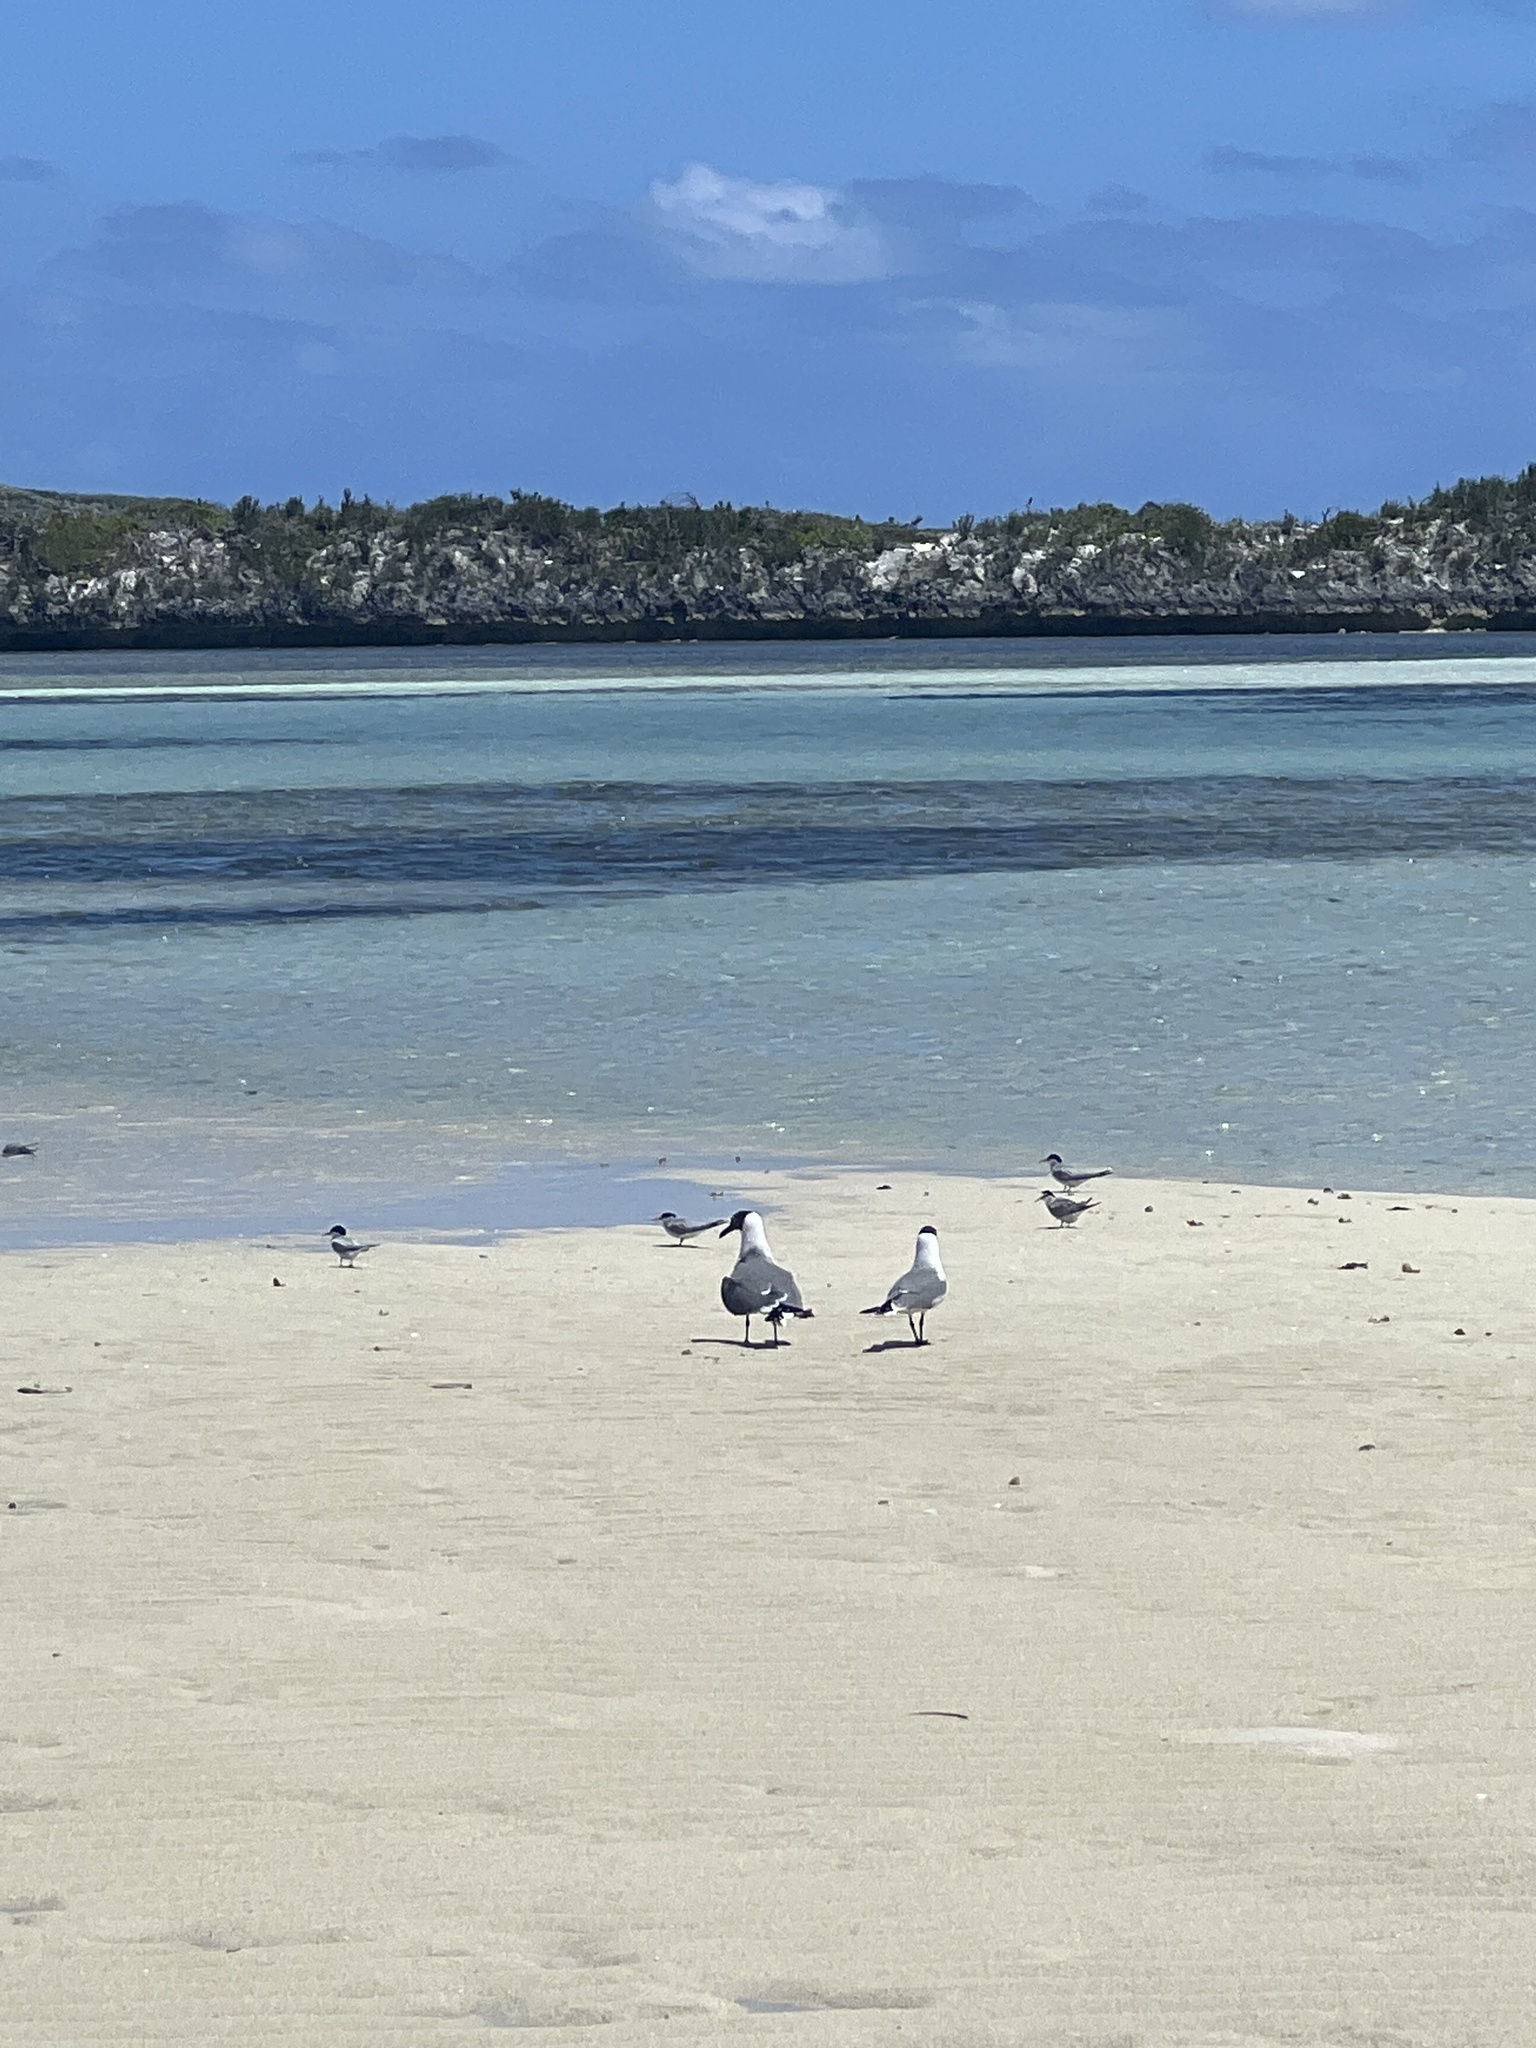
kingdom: Animalia
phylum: Chordata
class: Aves
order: Charadriiformes
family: Laridae
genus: Leucophaeus
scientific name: Leucophaeus atricilla
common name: Laughing gull
